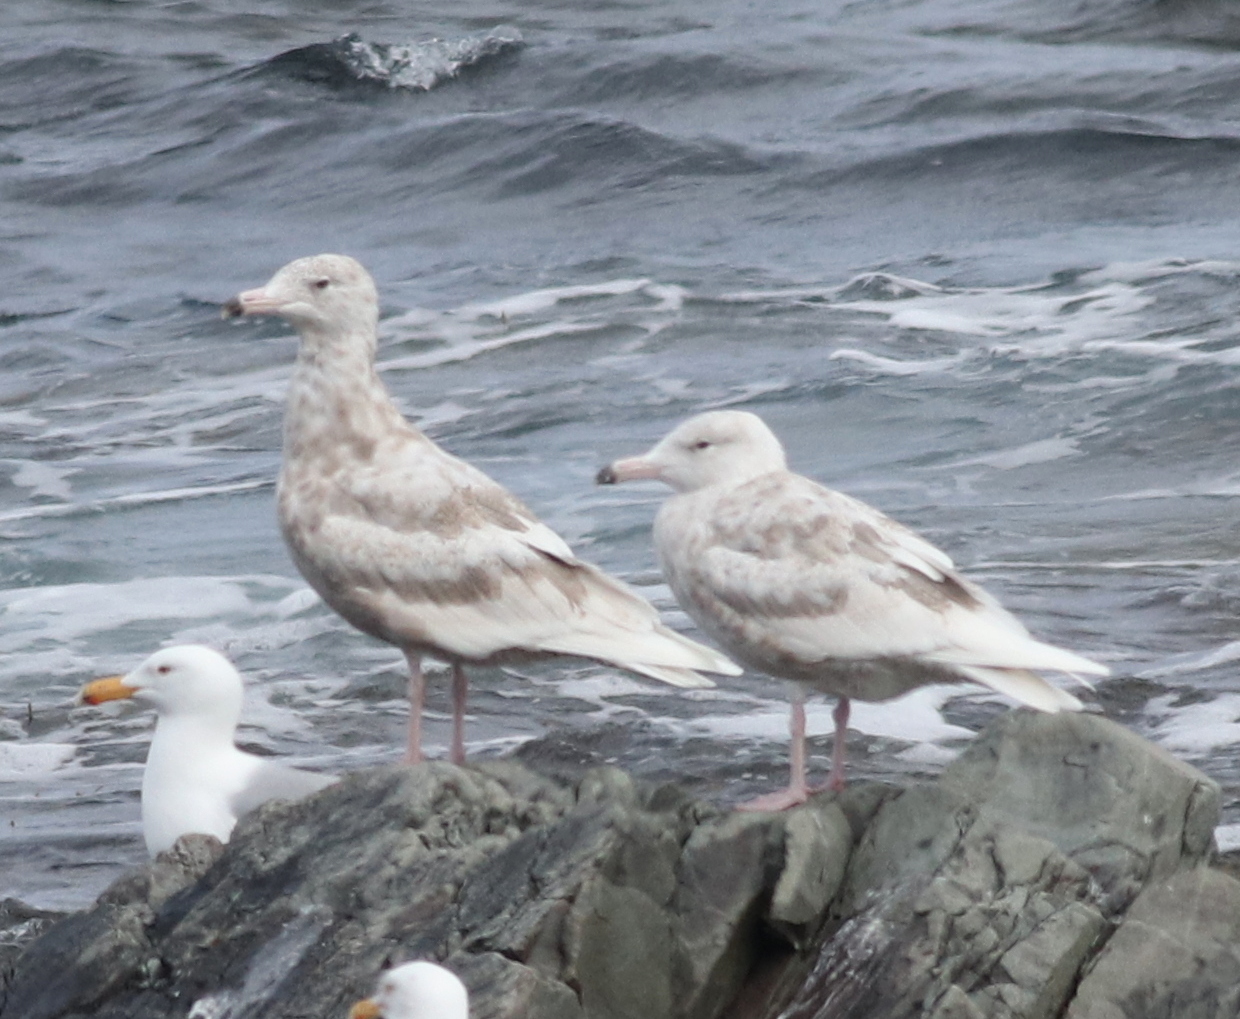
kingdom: Animalia
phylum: Chordata
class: Aves
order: Charadriiformes
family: Laridae
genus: Larus
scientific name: Larus hyperboreus
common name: Glaucous gull
